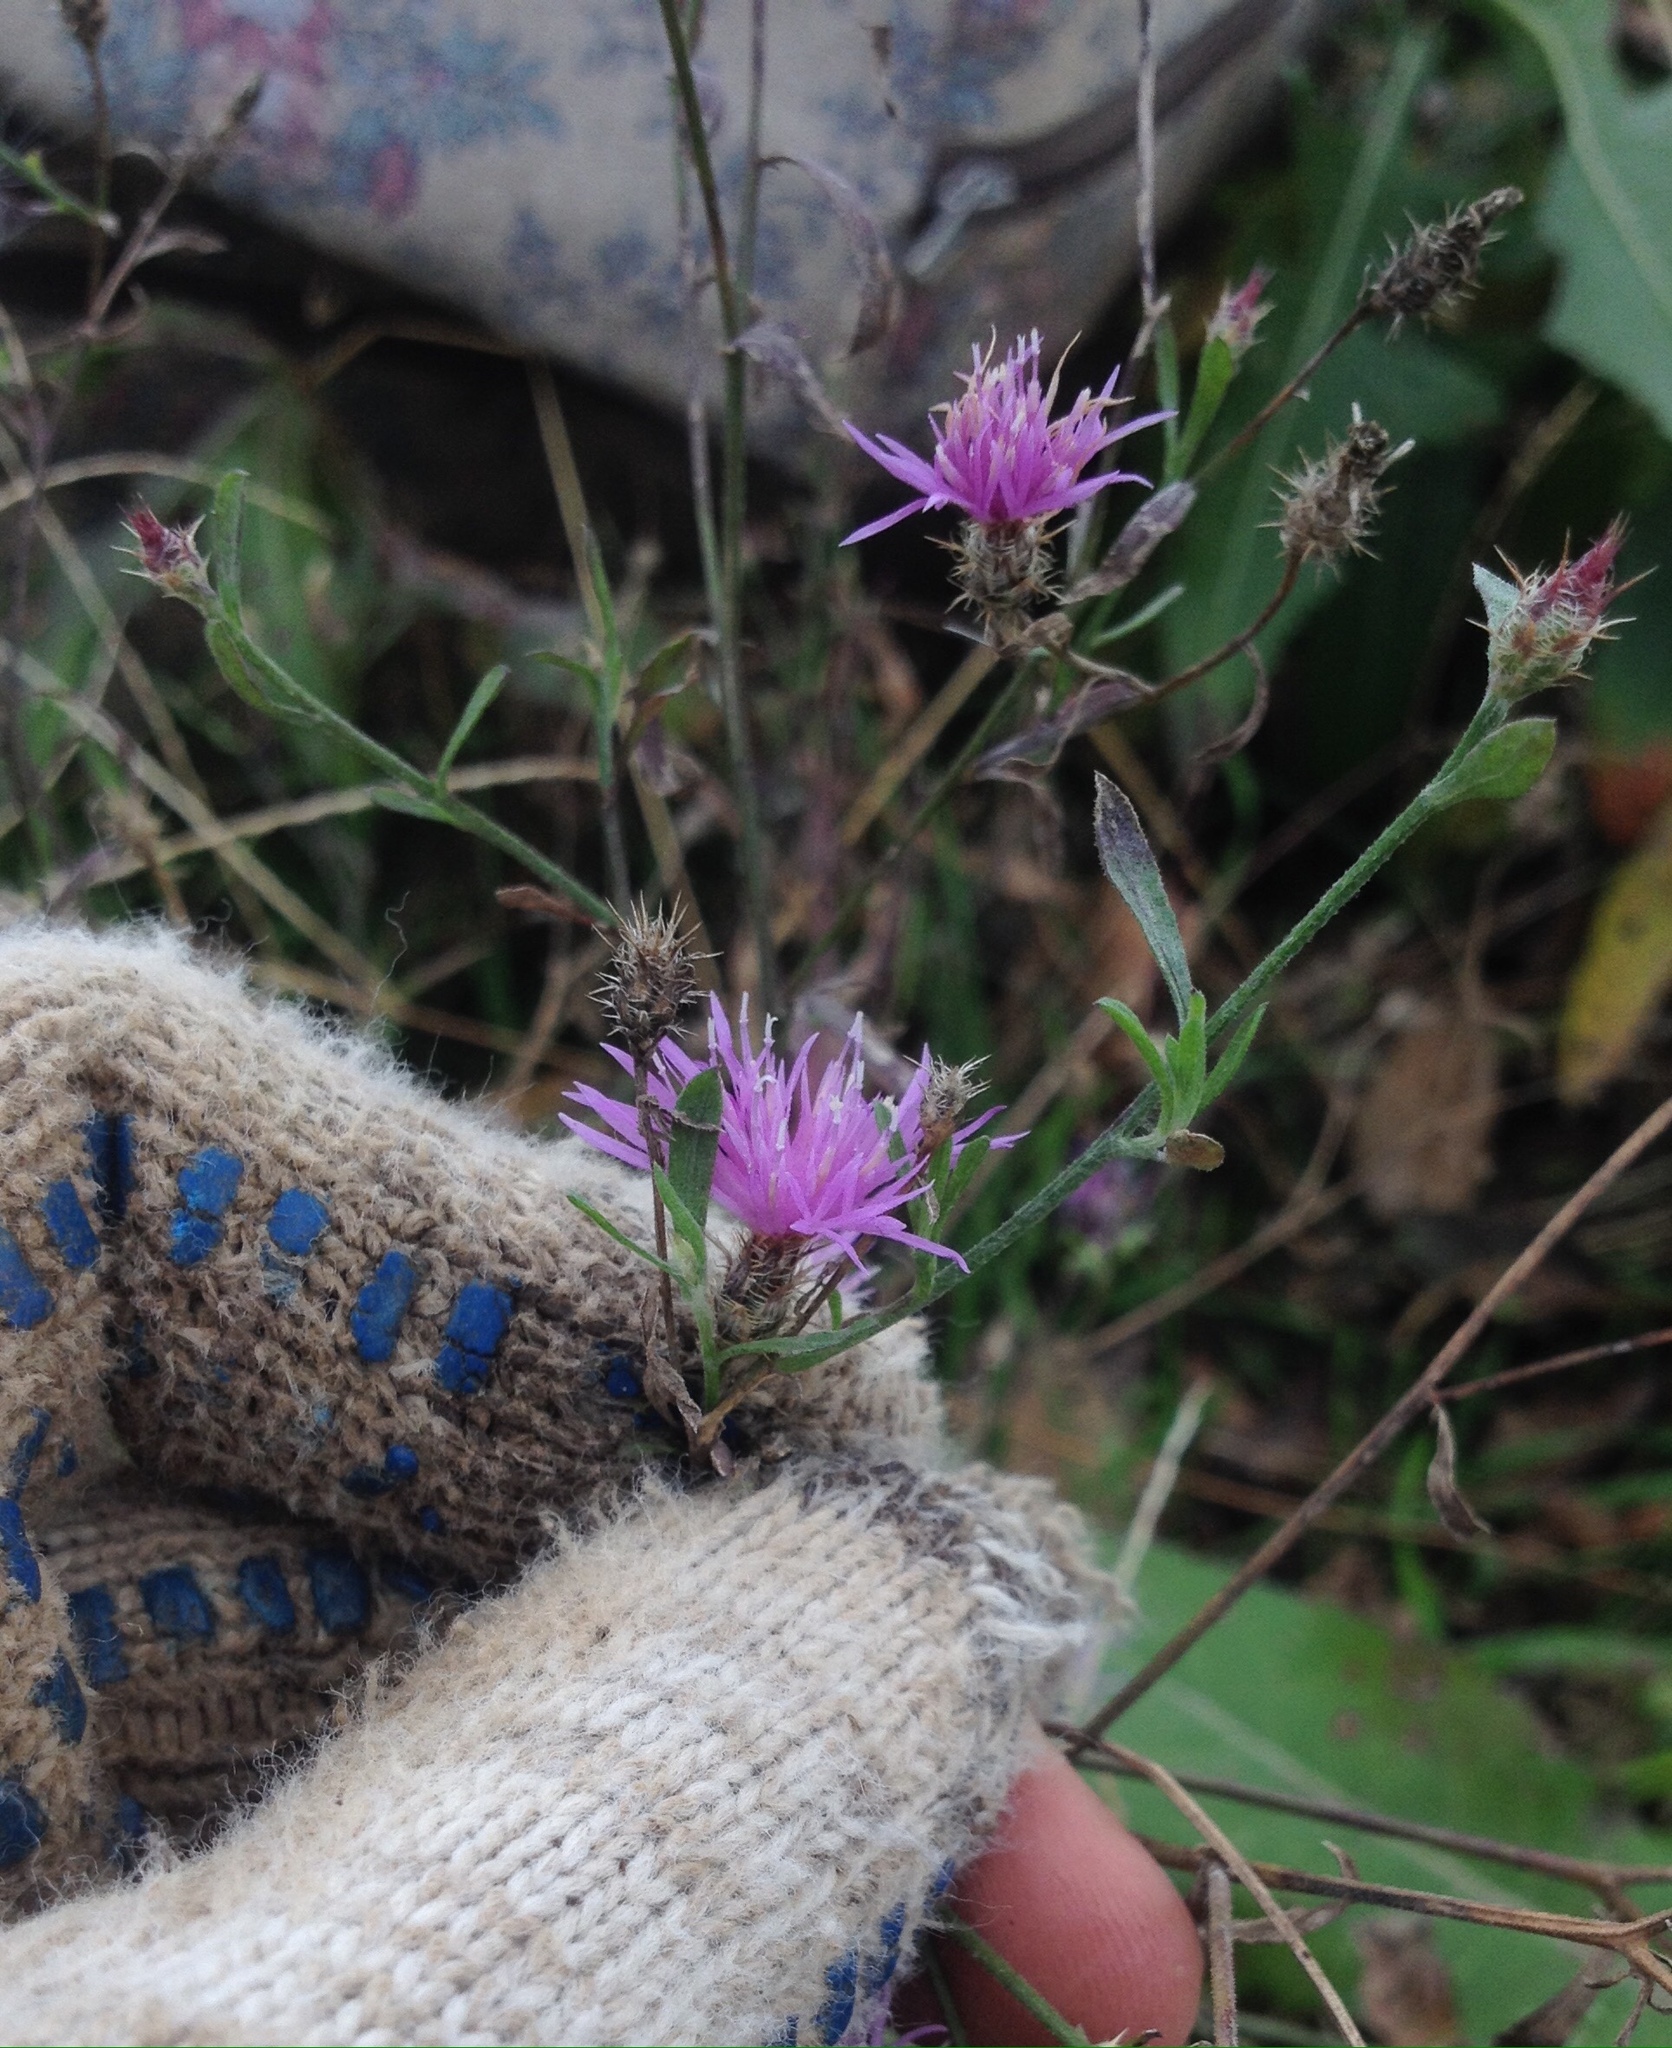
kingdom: Plantae
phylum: Tracheophyta
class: Magnoliopsida
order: Asterales
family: Asteraceae
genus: Centaurea
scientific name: Centaurea diffusa
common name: Diffuse knapweed
